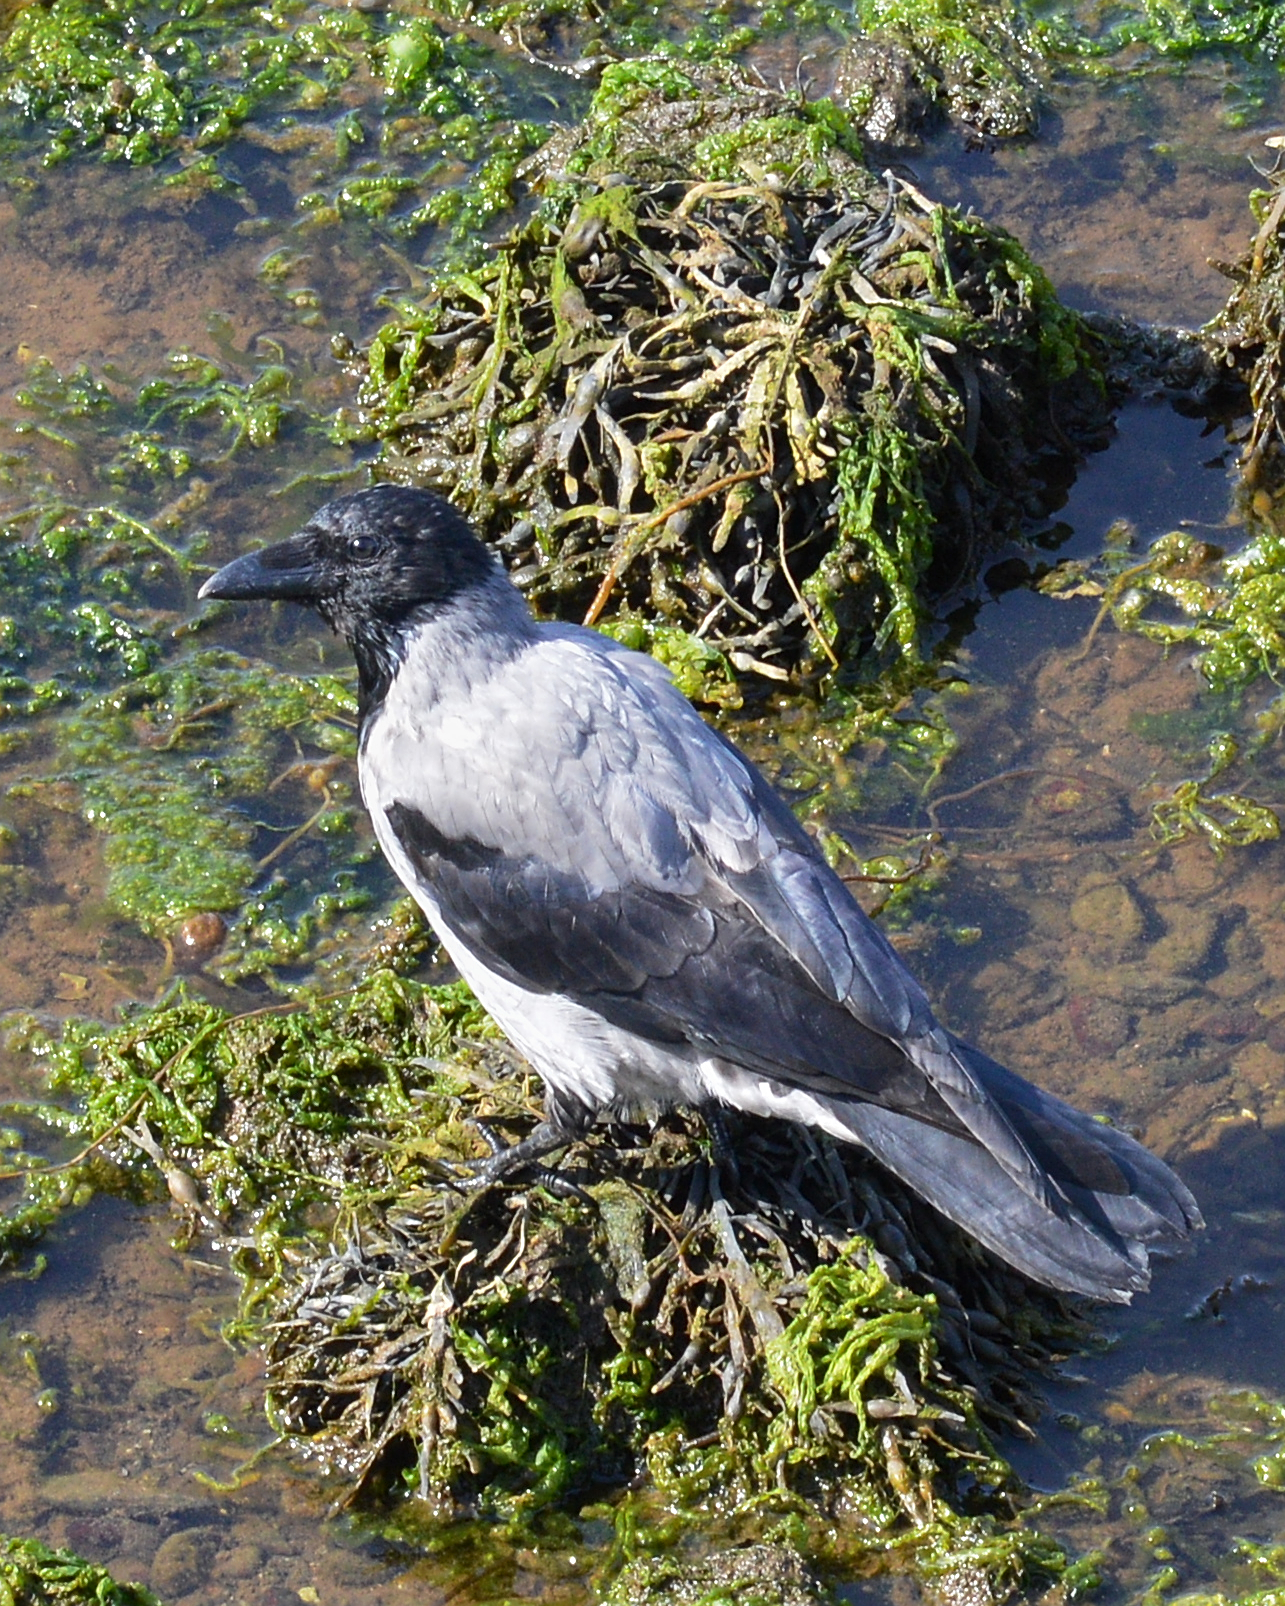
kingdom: Animalia
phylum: Chordata
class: Aves
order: Passeriformes
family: Corvidae
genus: Corvus
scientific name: Corvus cornix
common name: Hooded crow
